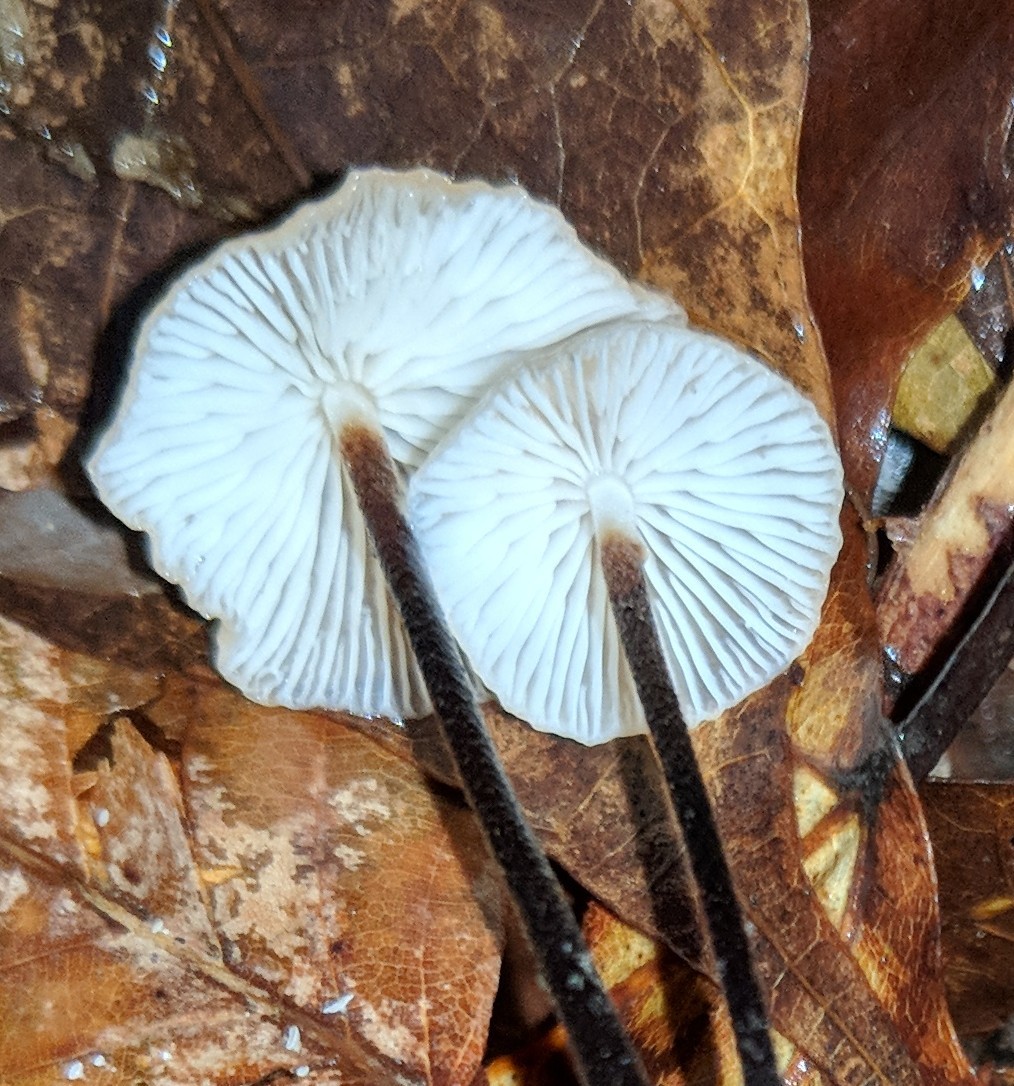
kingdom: Fungi
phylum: Basidiomycota
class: Agaricomycetes
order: Agaricales
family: Physalacriaceae
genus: Rhizomarasmius
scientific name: Rhizomarasmius pyrrhocephalus
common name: Hairy long stem marasmius
